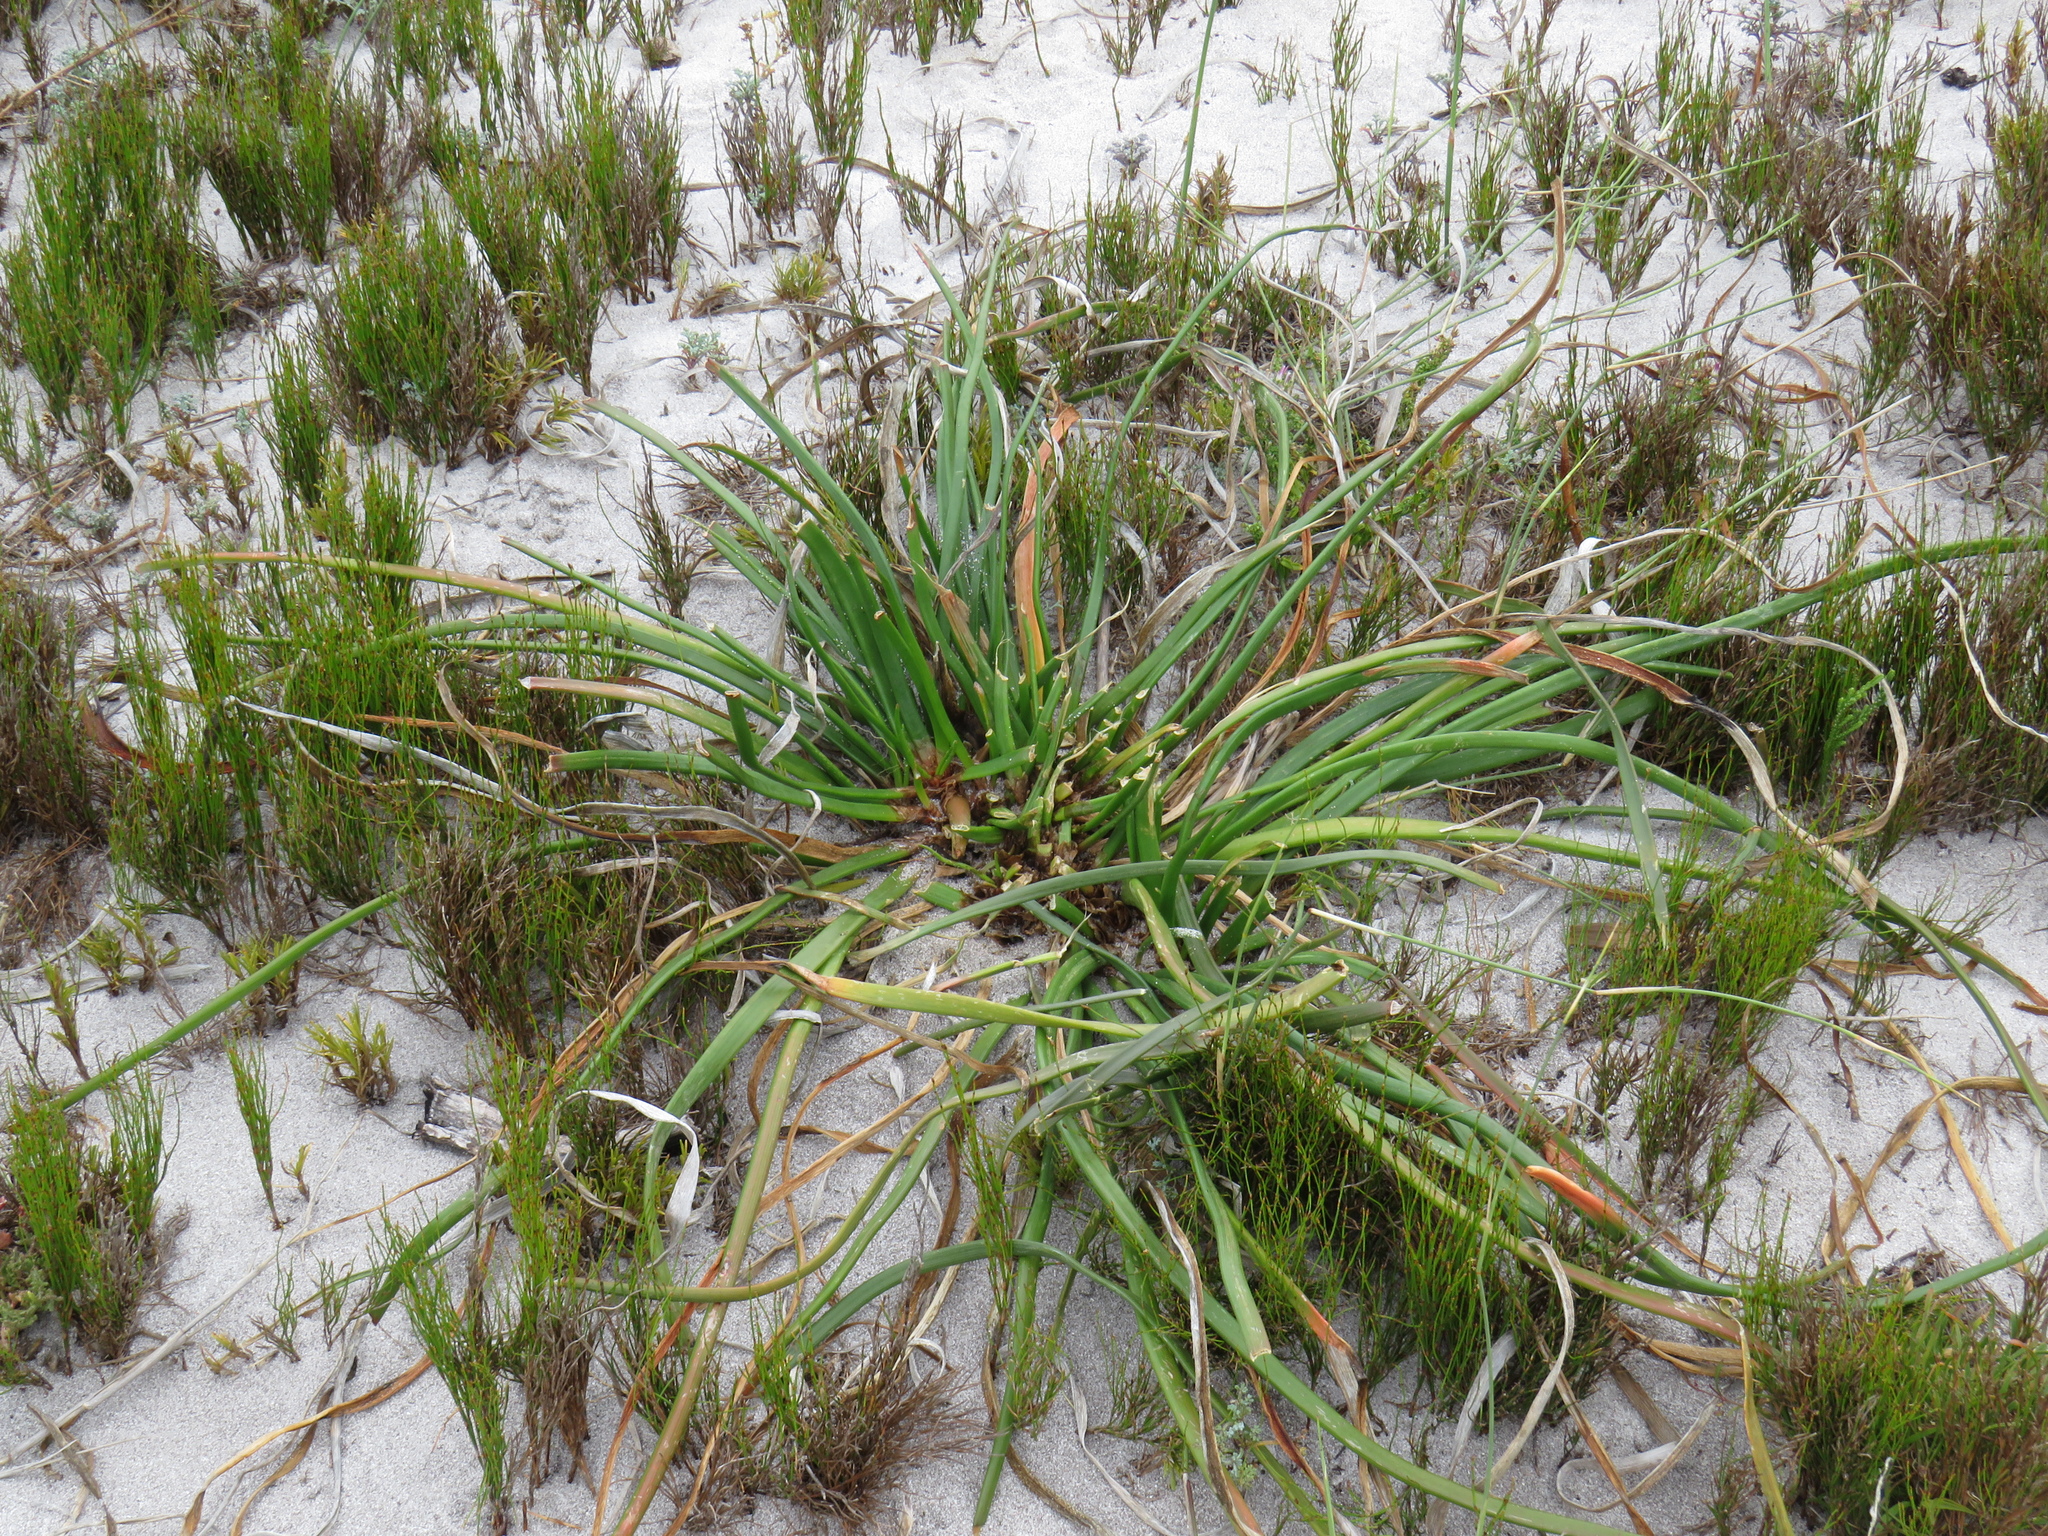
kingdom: Plantae
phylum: Tracheophyta
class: Liliopsida
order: Asparagales
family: Asphodelaceae
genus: Trachyandra
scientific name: Trachyandra divaricata
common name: Dune onionweed
